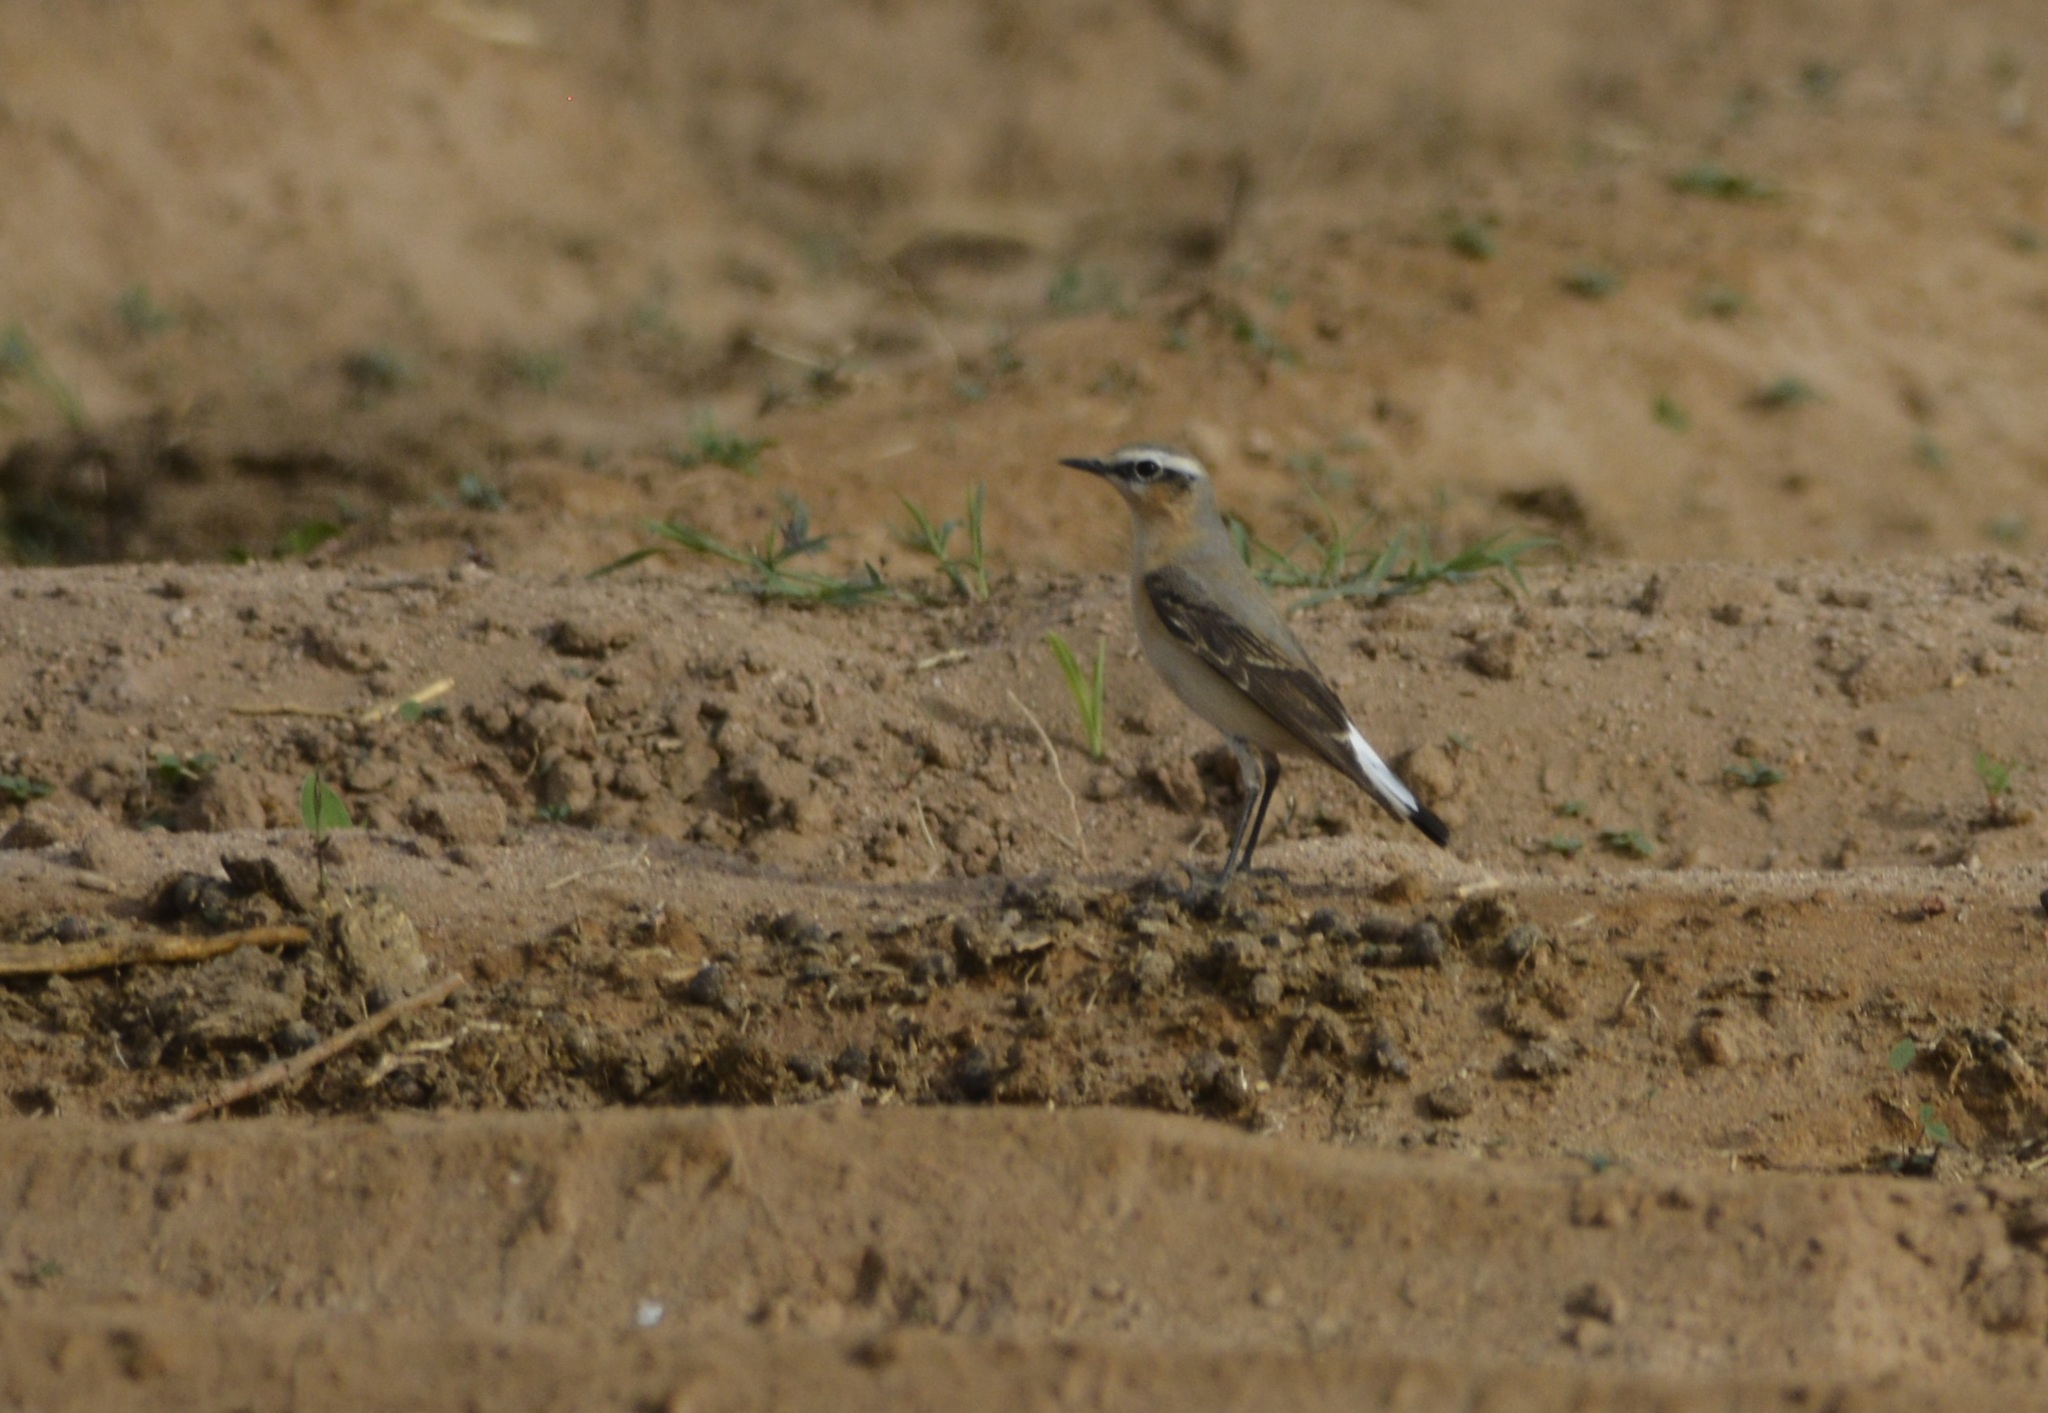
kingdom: Animalia
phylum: Chordata
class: Aves
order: Passeriformes
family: Muscicapidae
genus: Oenanthe
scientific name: Oenanthe oenanthe
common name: Northern wheatear
